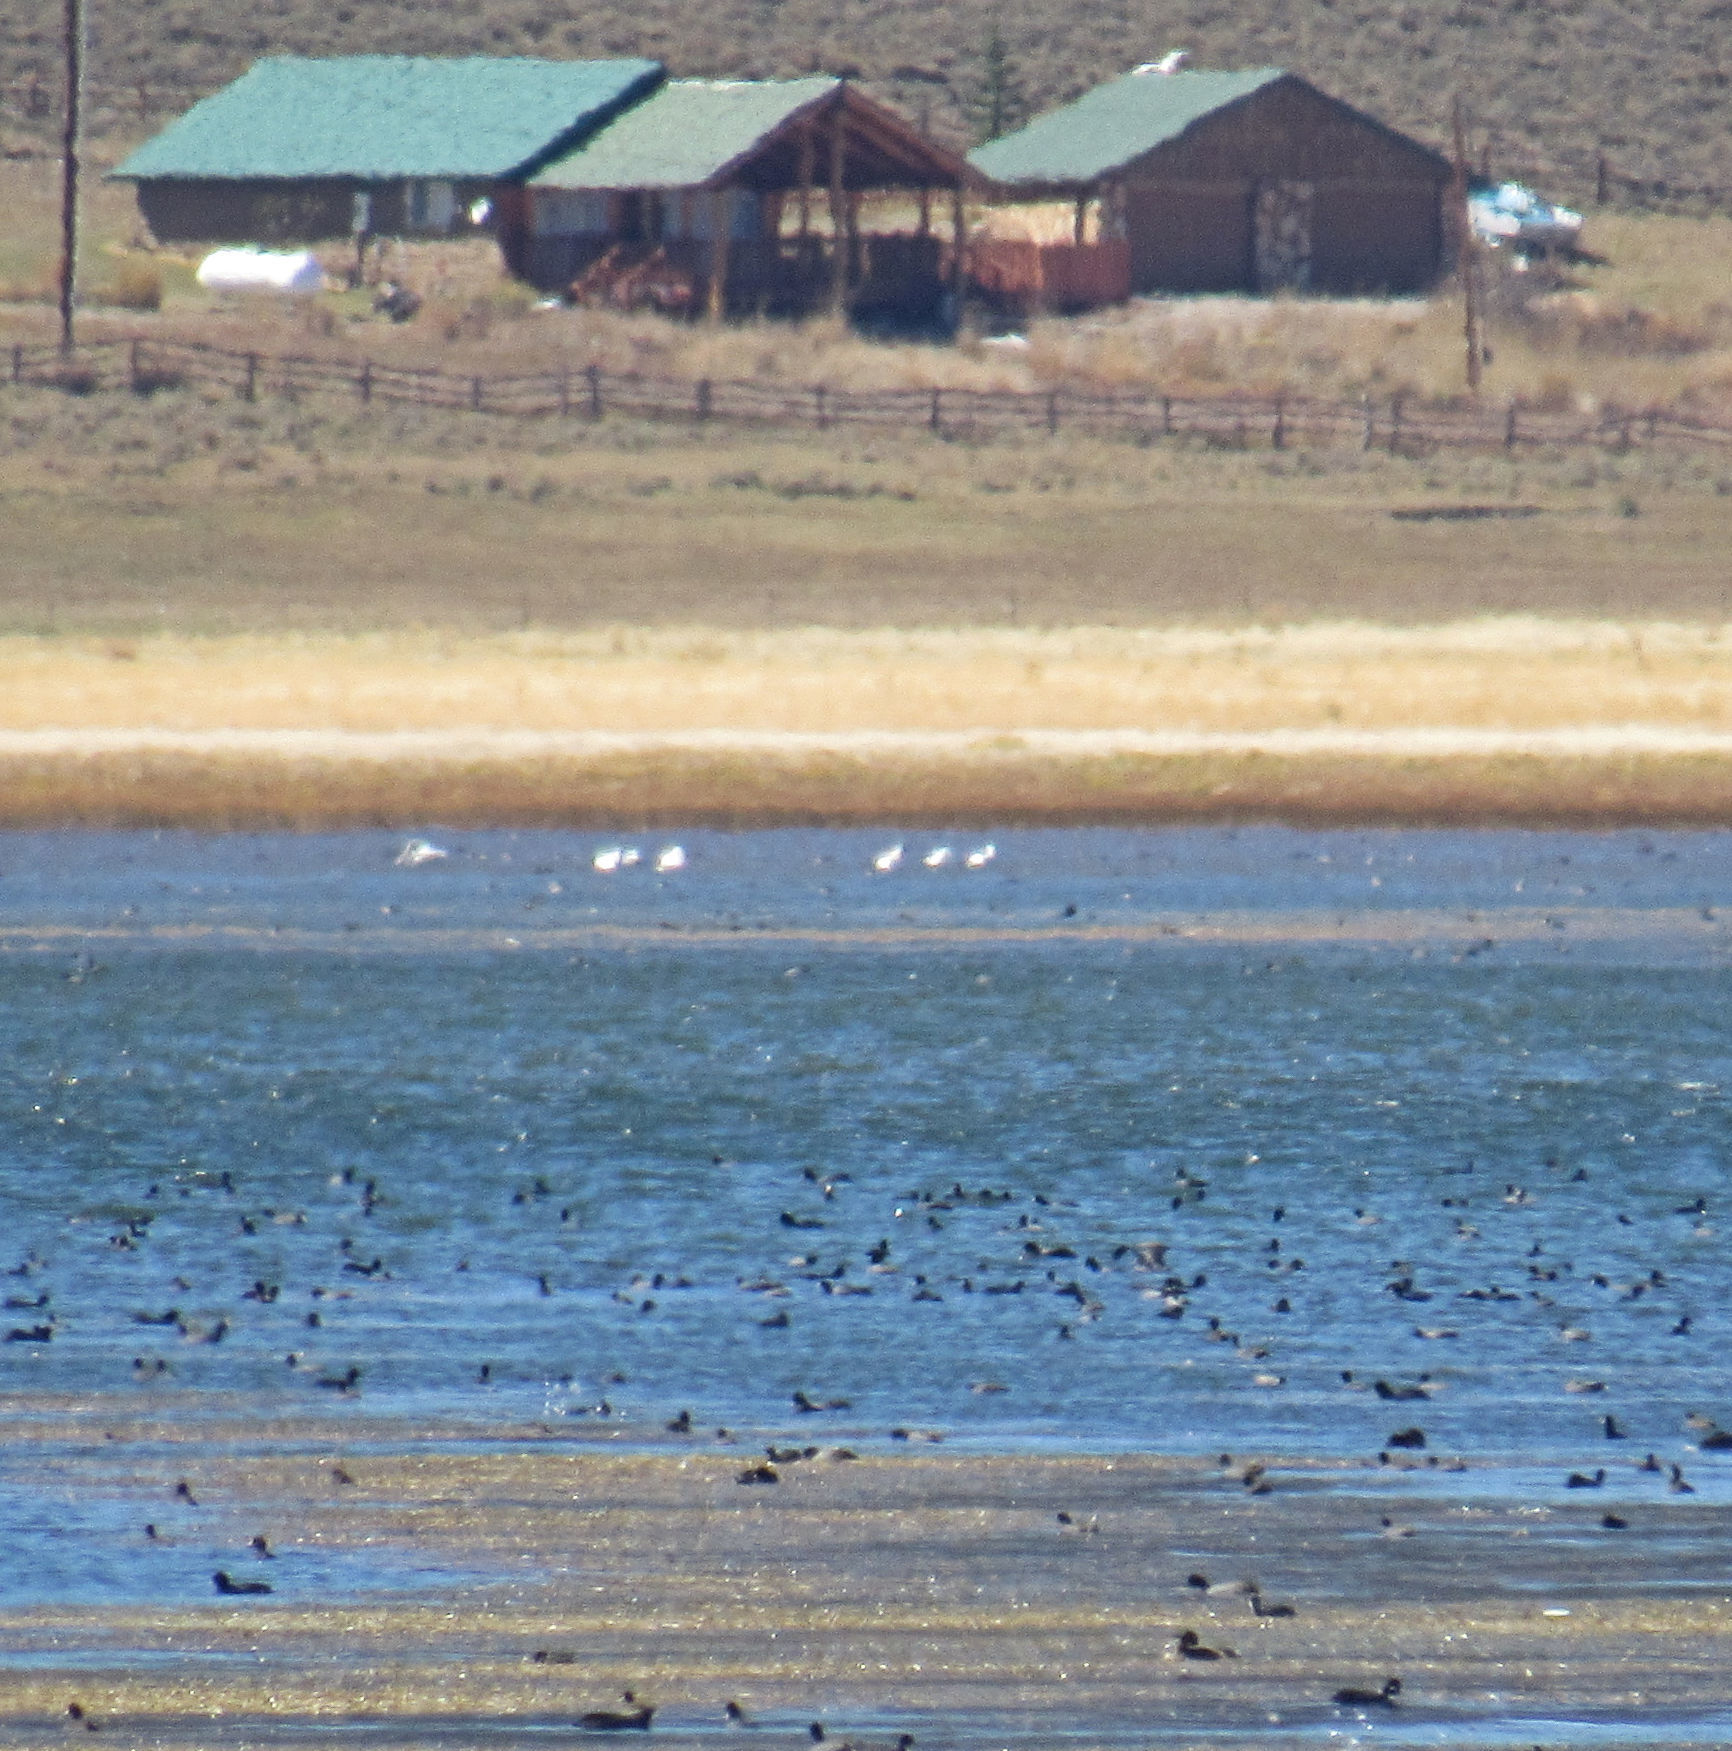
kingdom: Animalia
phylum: Chordata
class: Aves
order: Pelecaniformes
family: Pelecanidae
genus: Pelecanus
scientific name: Pelecanus erythrorhynchos
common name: American white pelican
